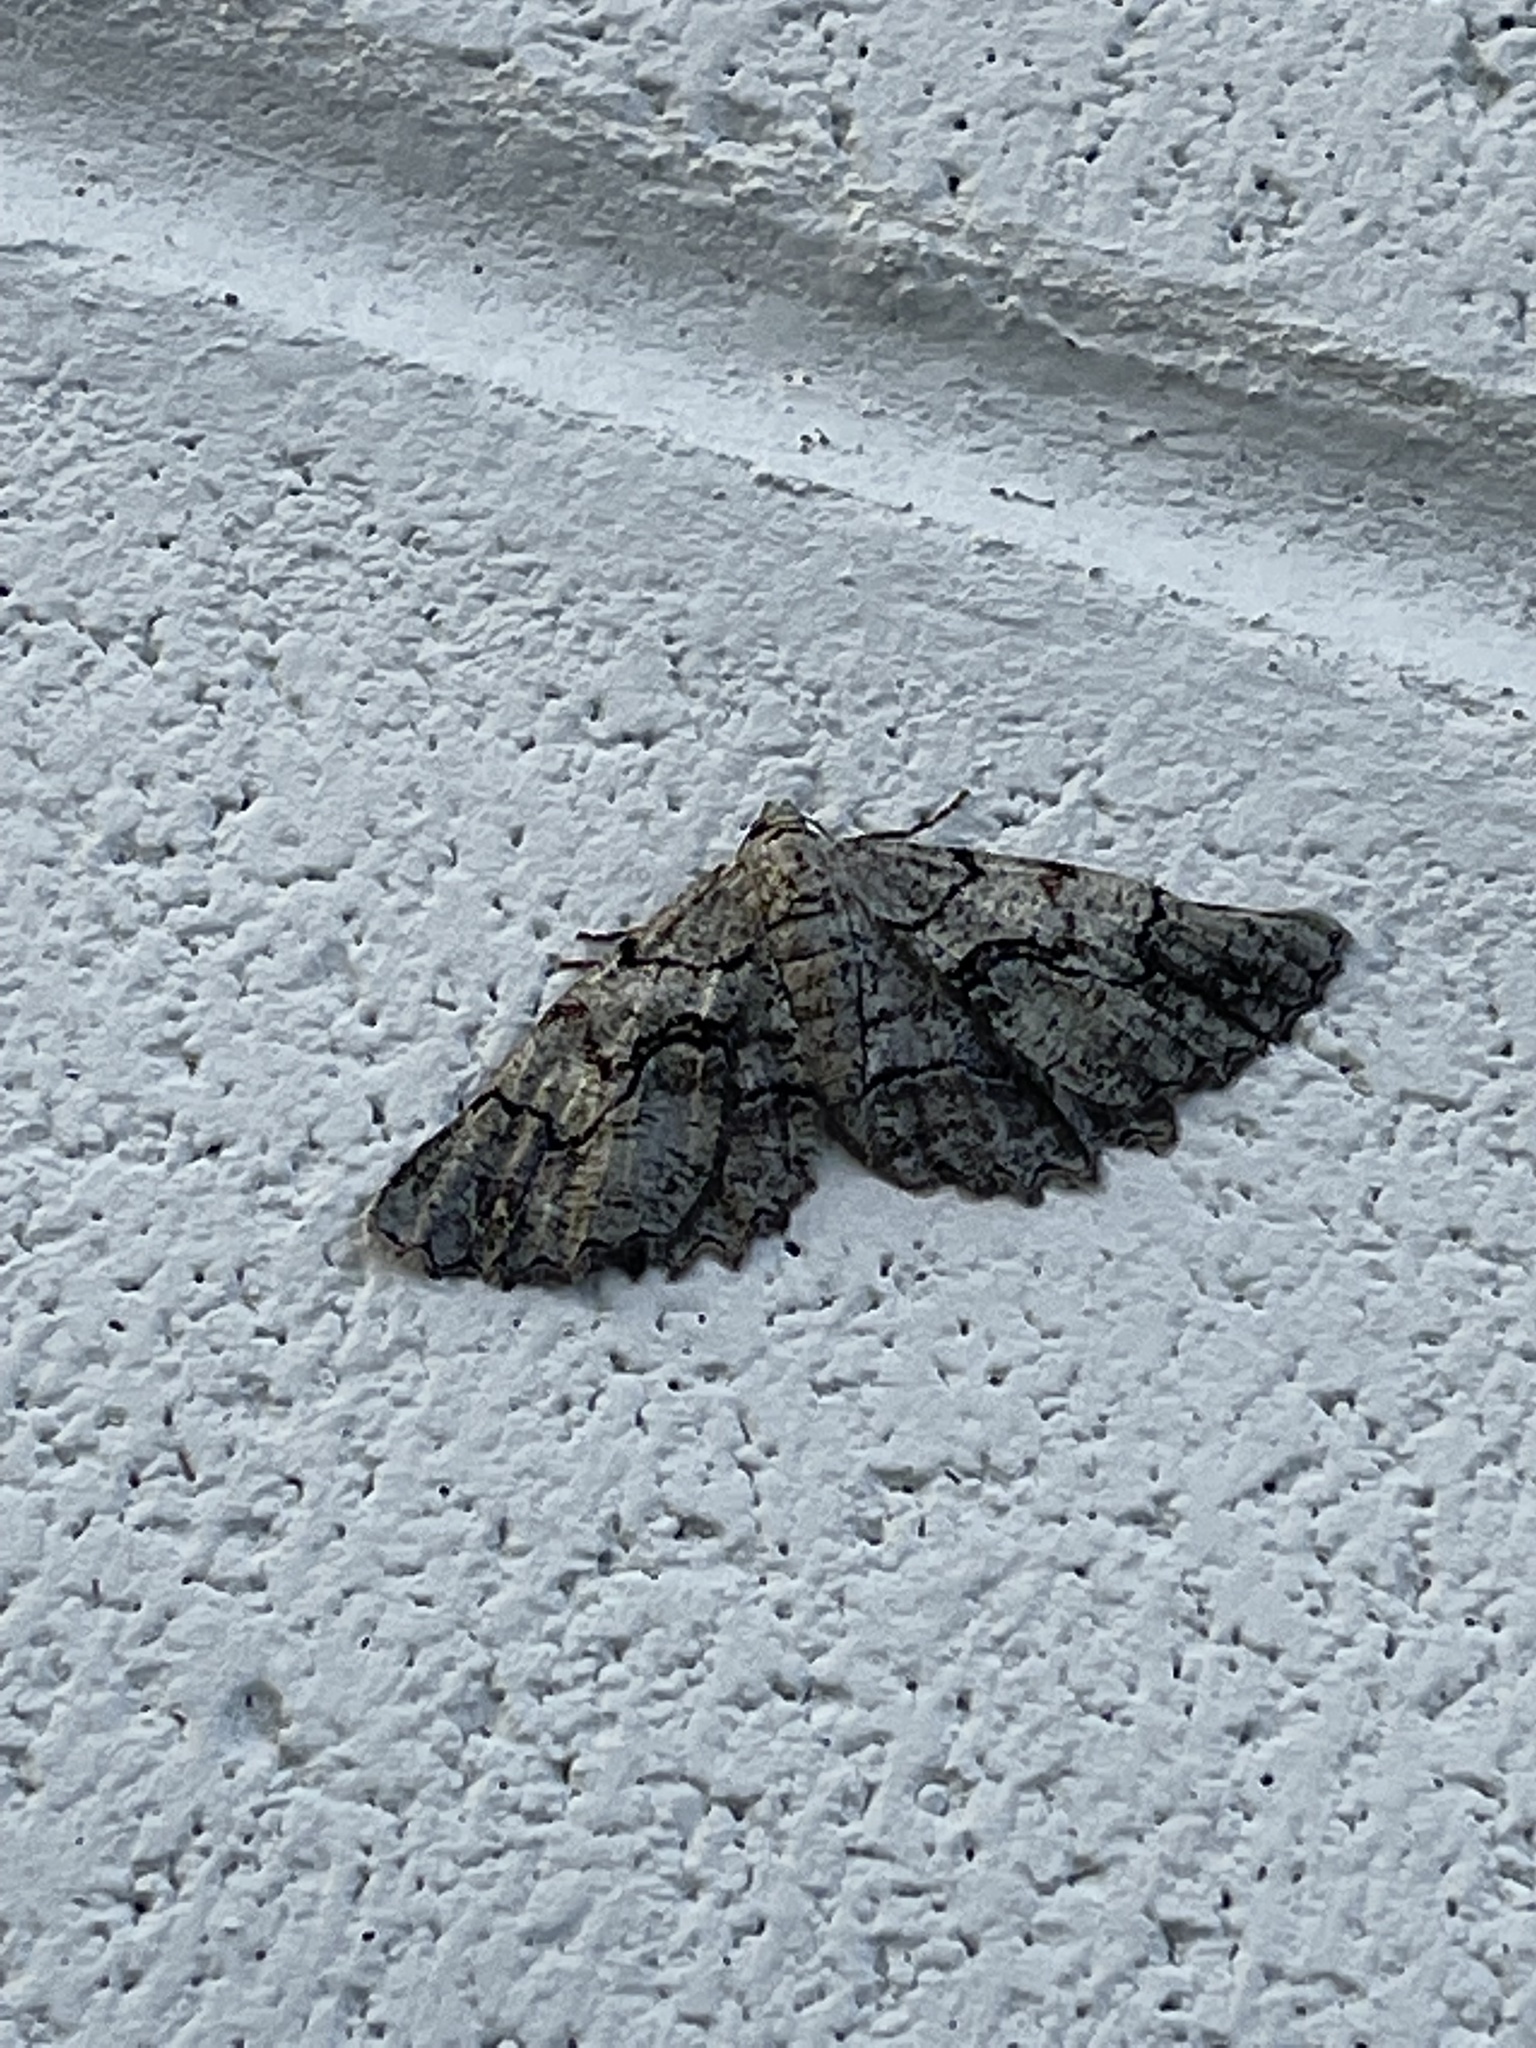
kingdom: Animalia
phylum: Arthropoda
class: Insecta
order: Lepidoptera
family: Geometridae
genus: Cymatophora
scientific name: Cymatophora approximaria
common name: Giant gray moth
